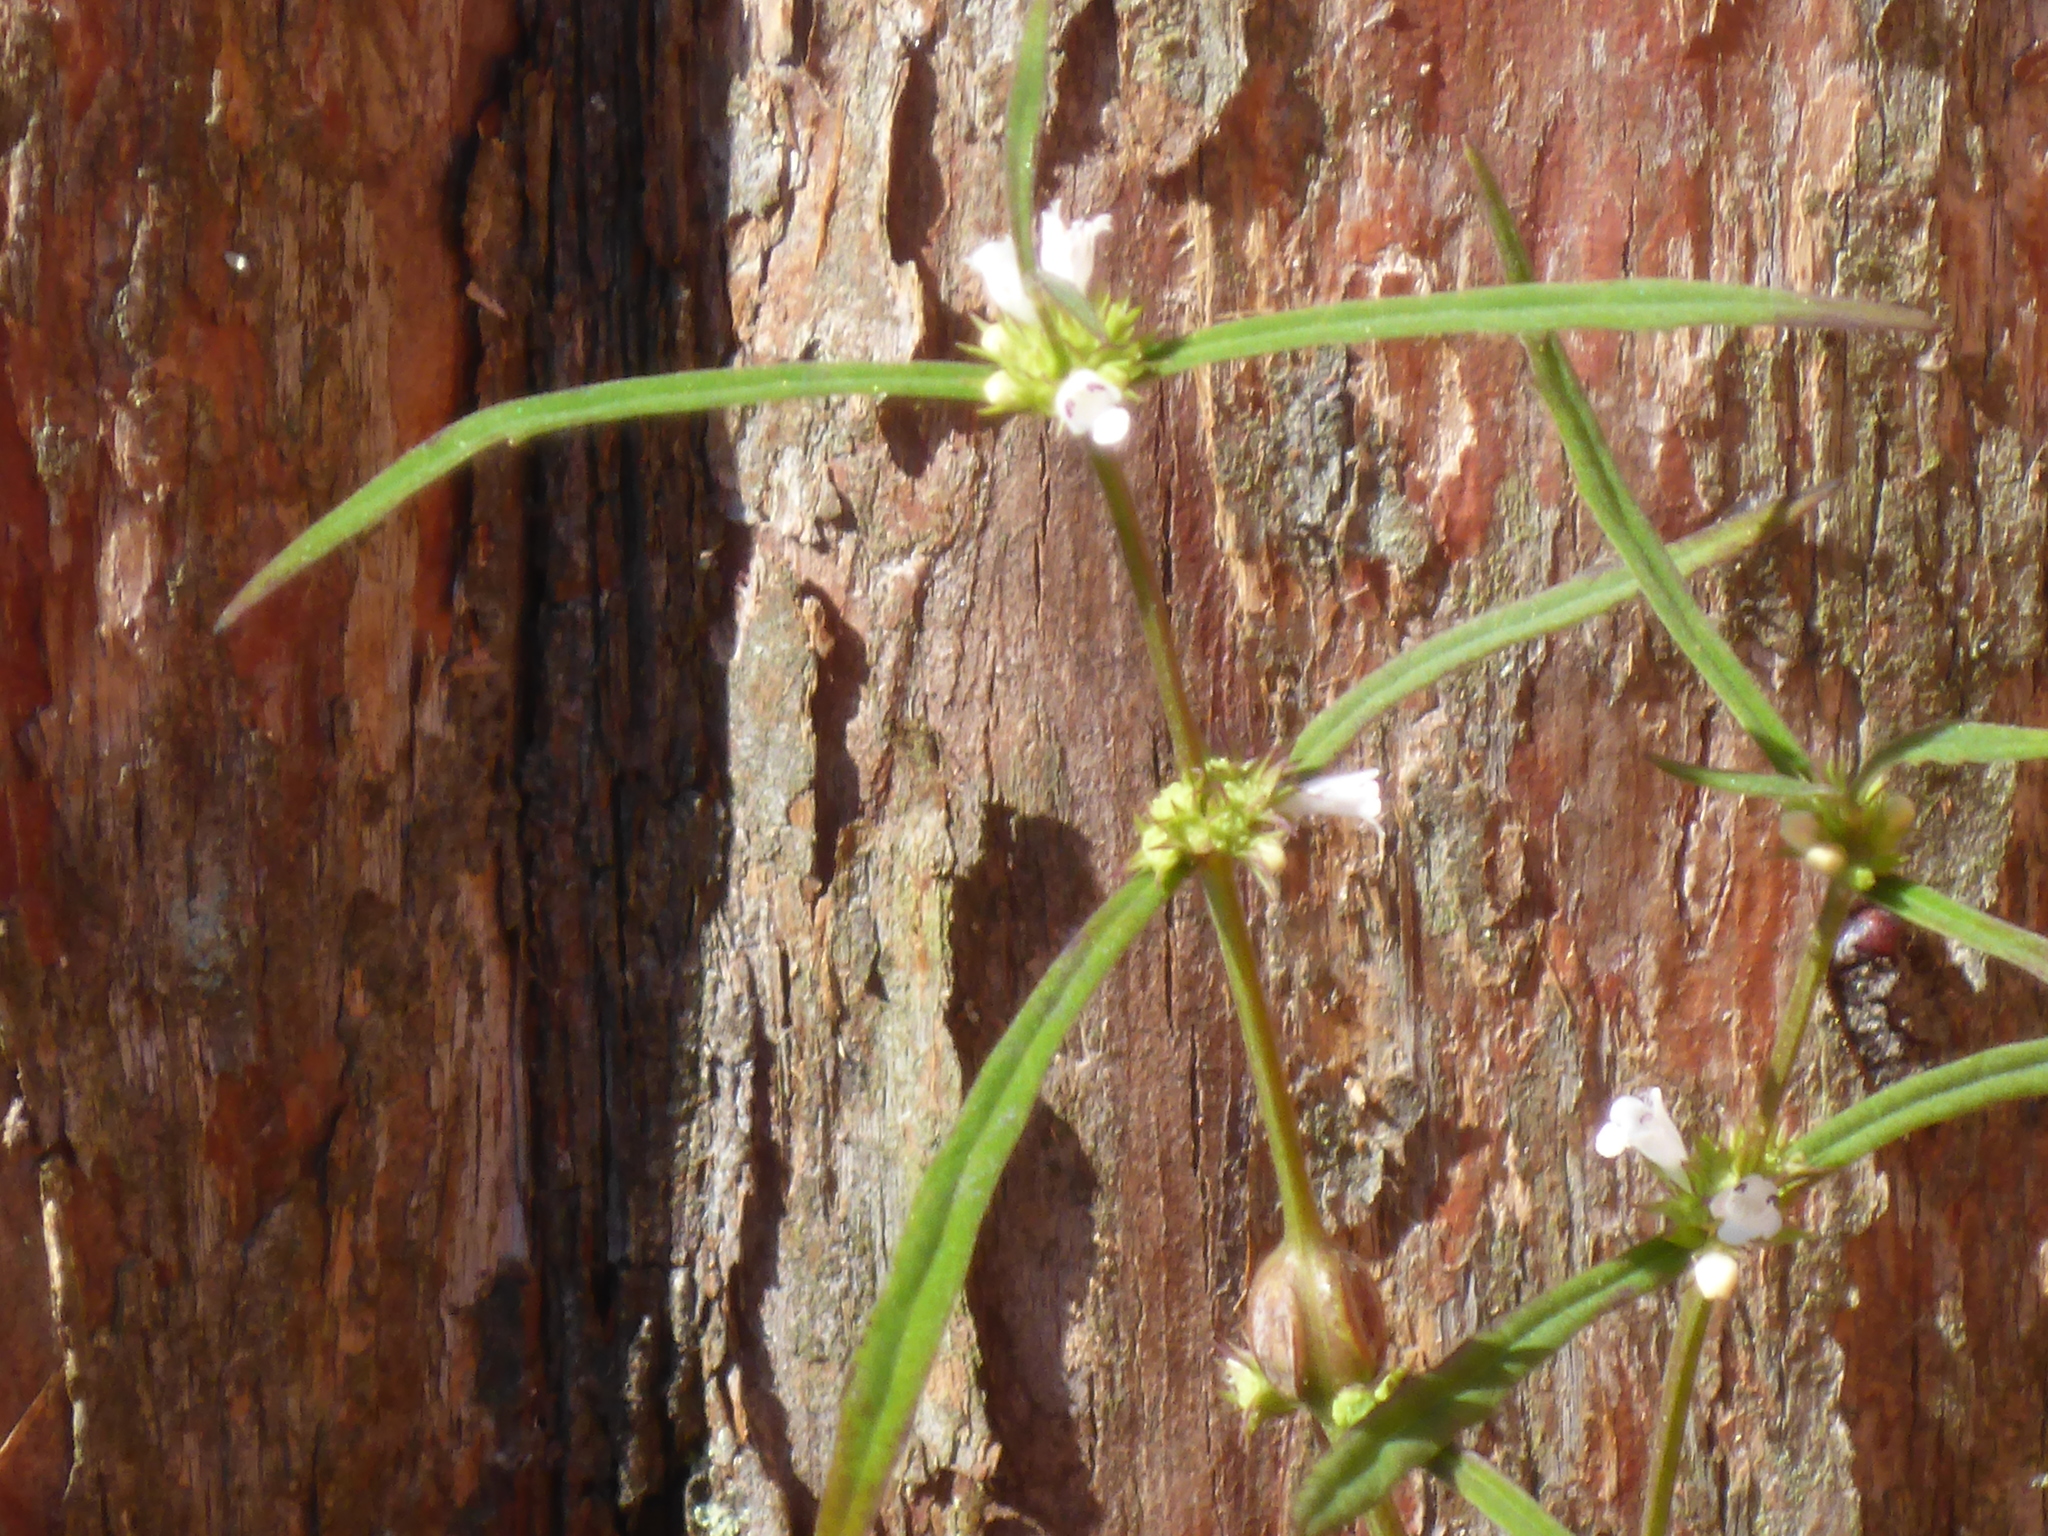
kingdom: Plantae
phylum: Tracheophyta
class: Magnoliopsida
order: Lamiales
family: Lamiaceae
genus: Lycopus
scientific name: Lycopus rubellus
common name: Stalked bugleweed
